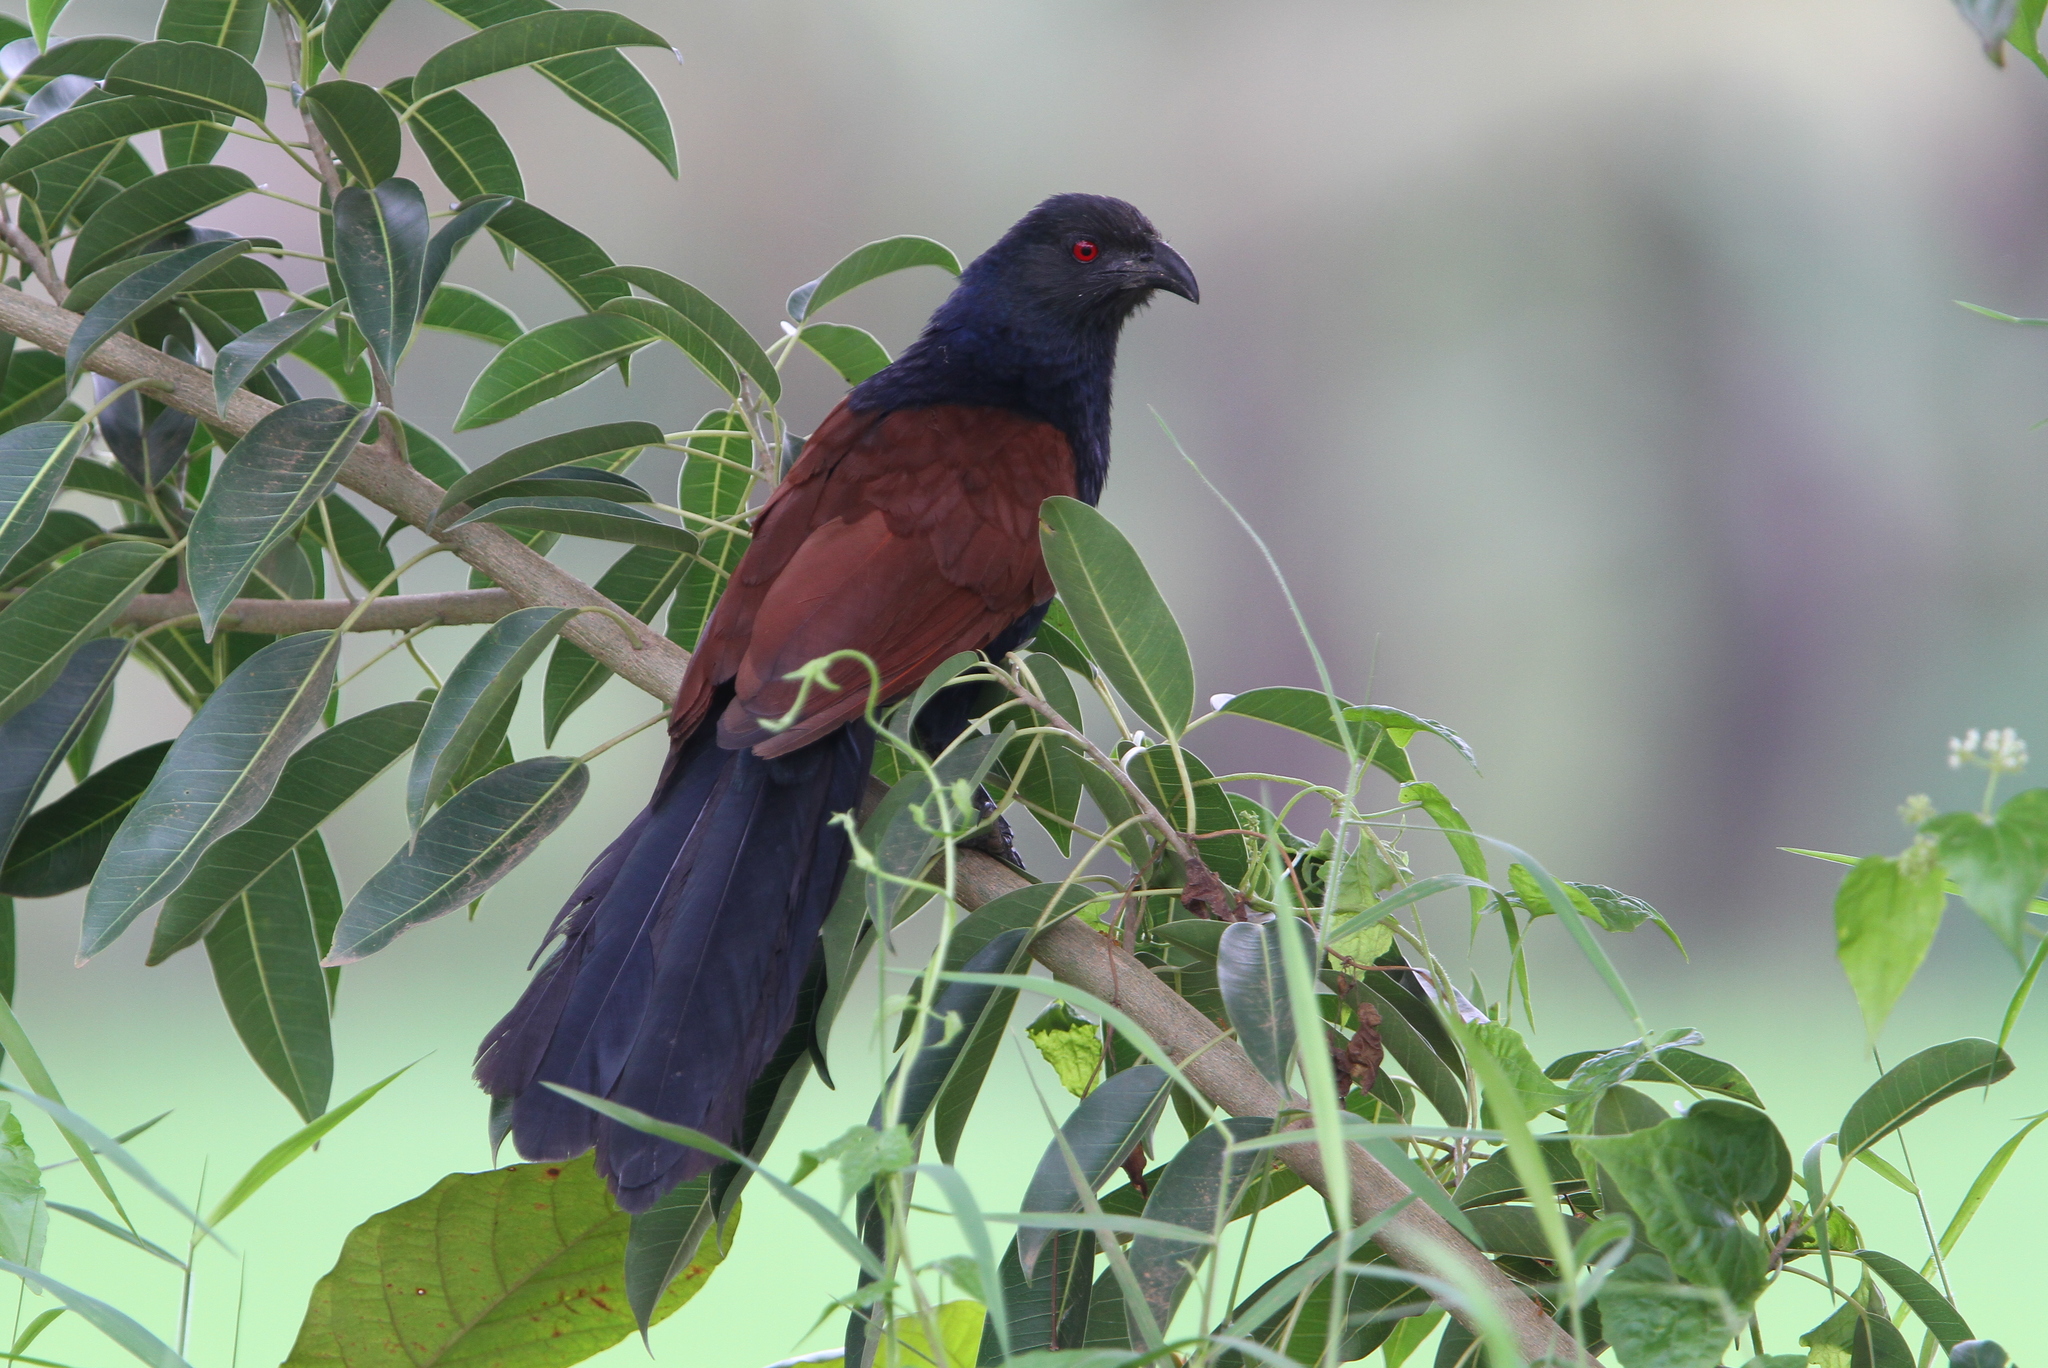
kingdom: Animalia
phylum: Chordata
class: Aves
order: Cuculiformes
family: Cuculidae
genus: Centropus
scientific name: Centropus sinensis
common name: Greater coucal
